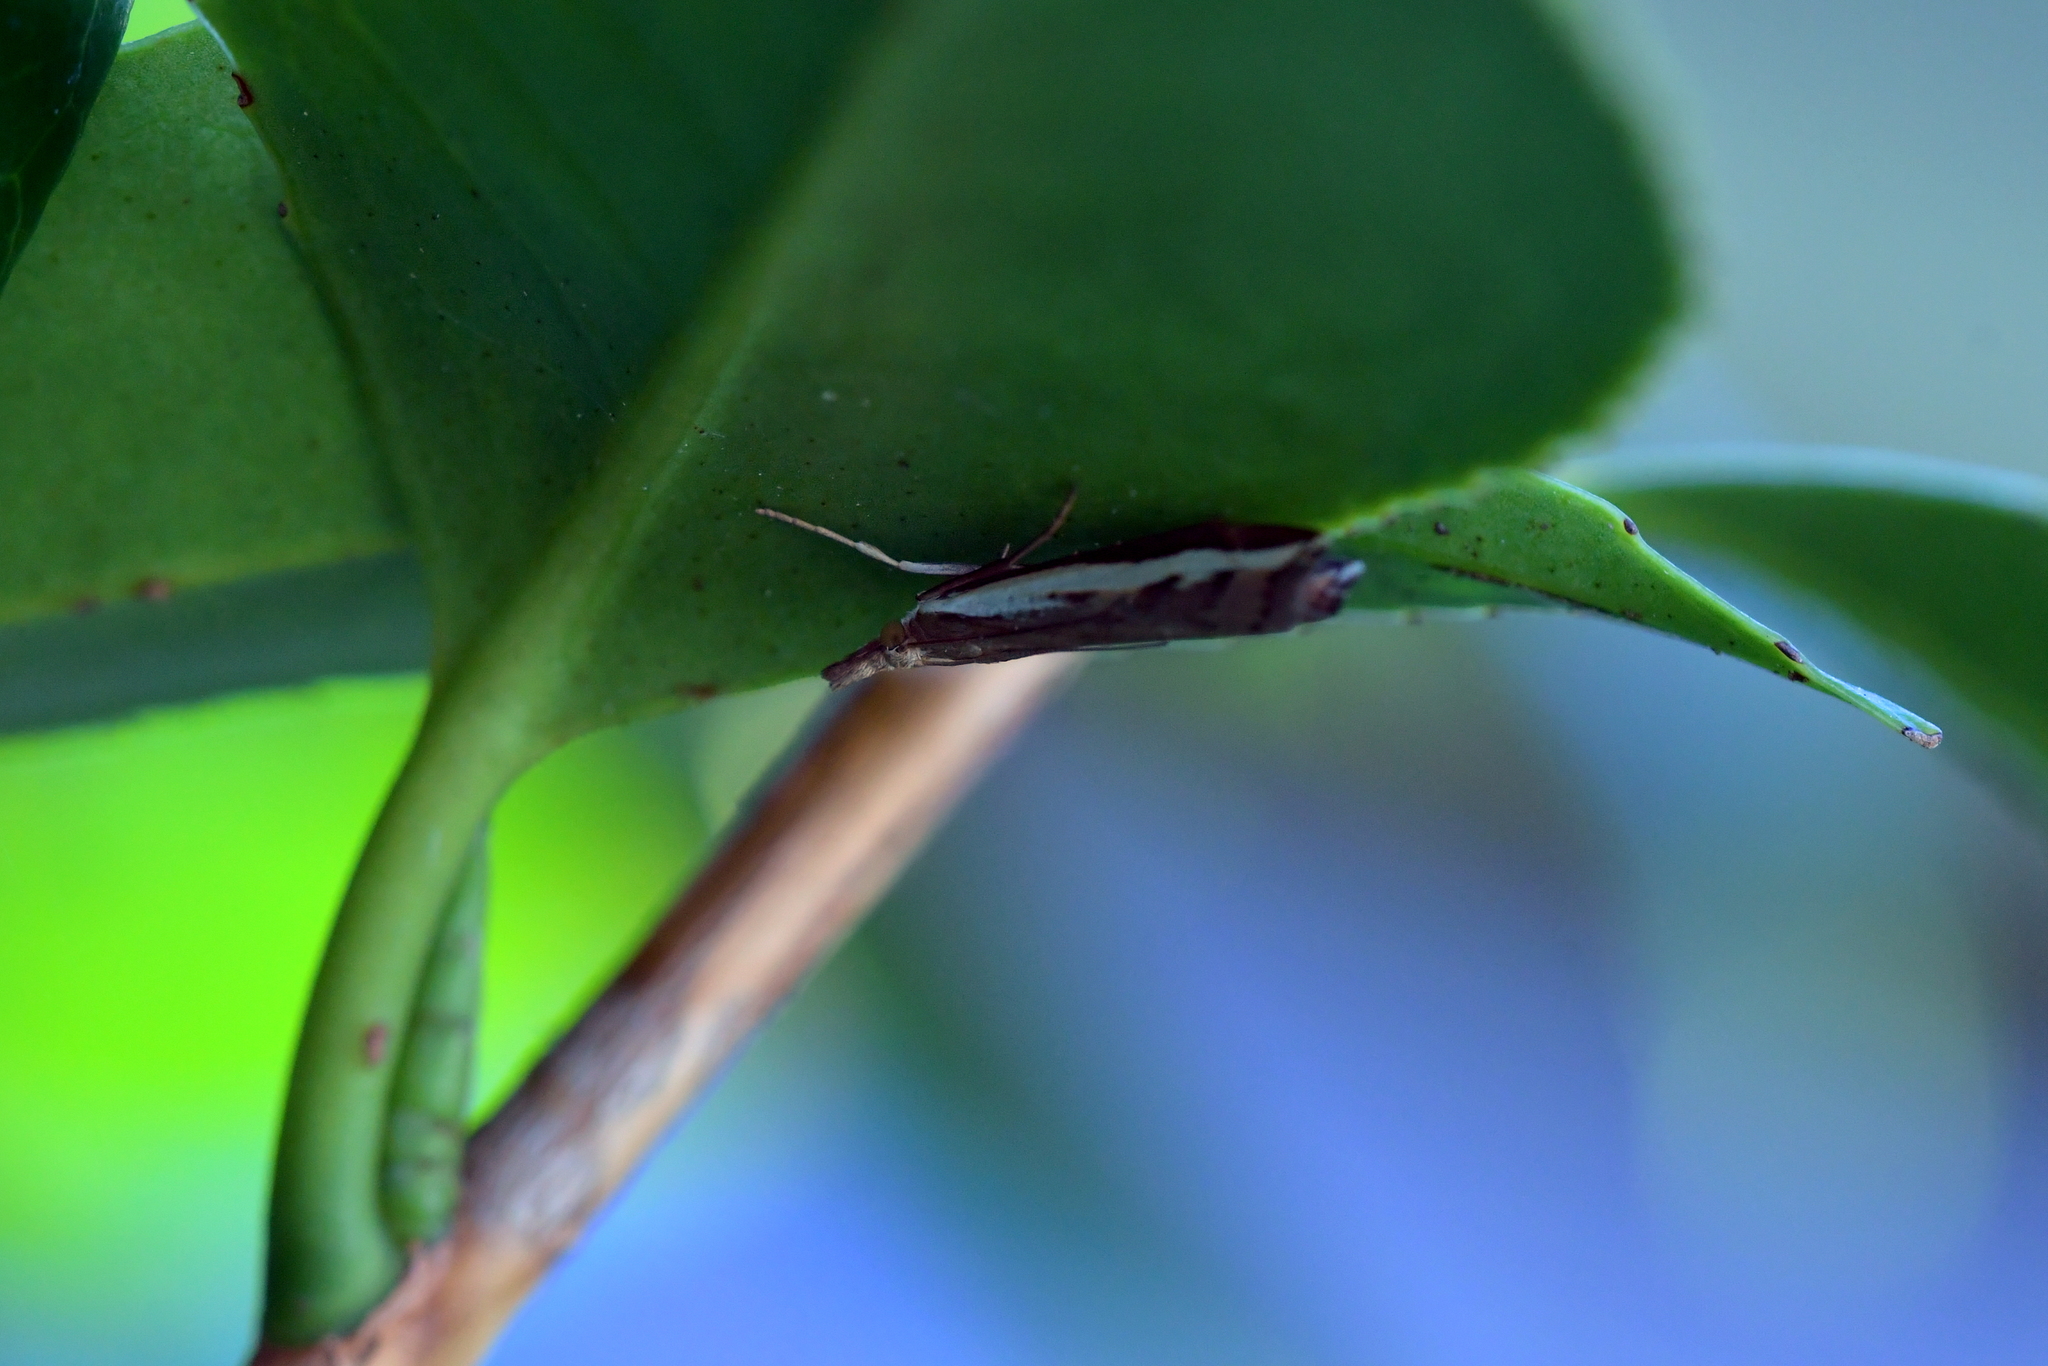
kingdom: Animalia
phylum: Arthropoda
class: Insecta
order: Lepidoptera
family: Crambidae
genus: Orocrambus
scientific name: Orocrambus flexuosellus
